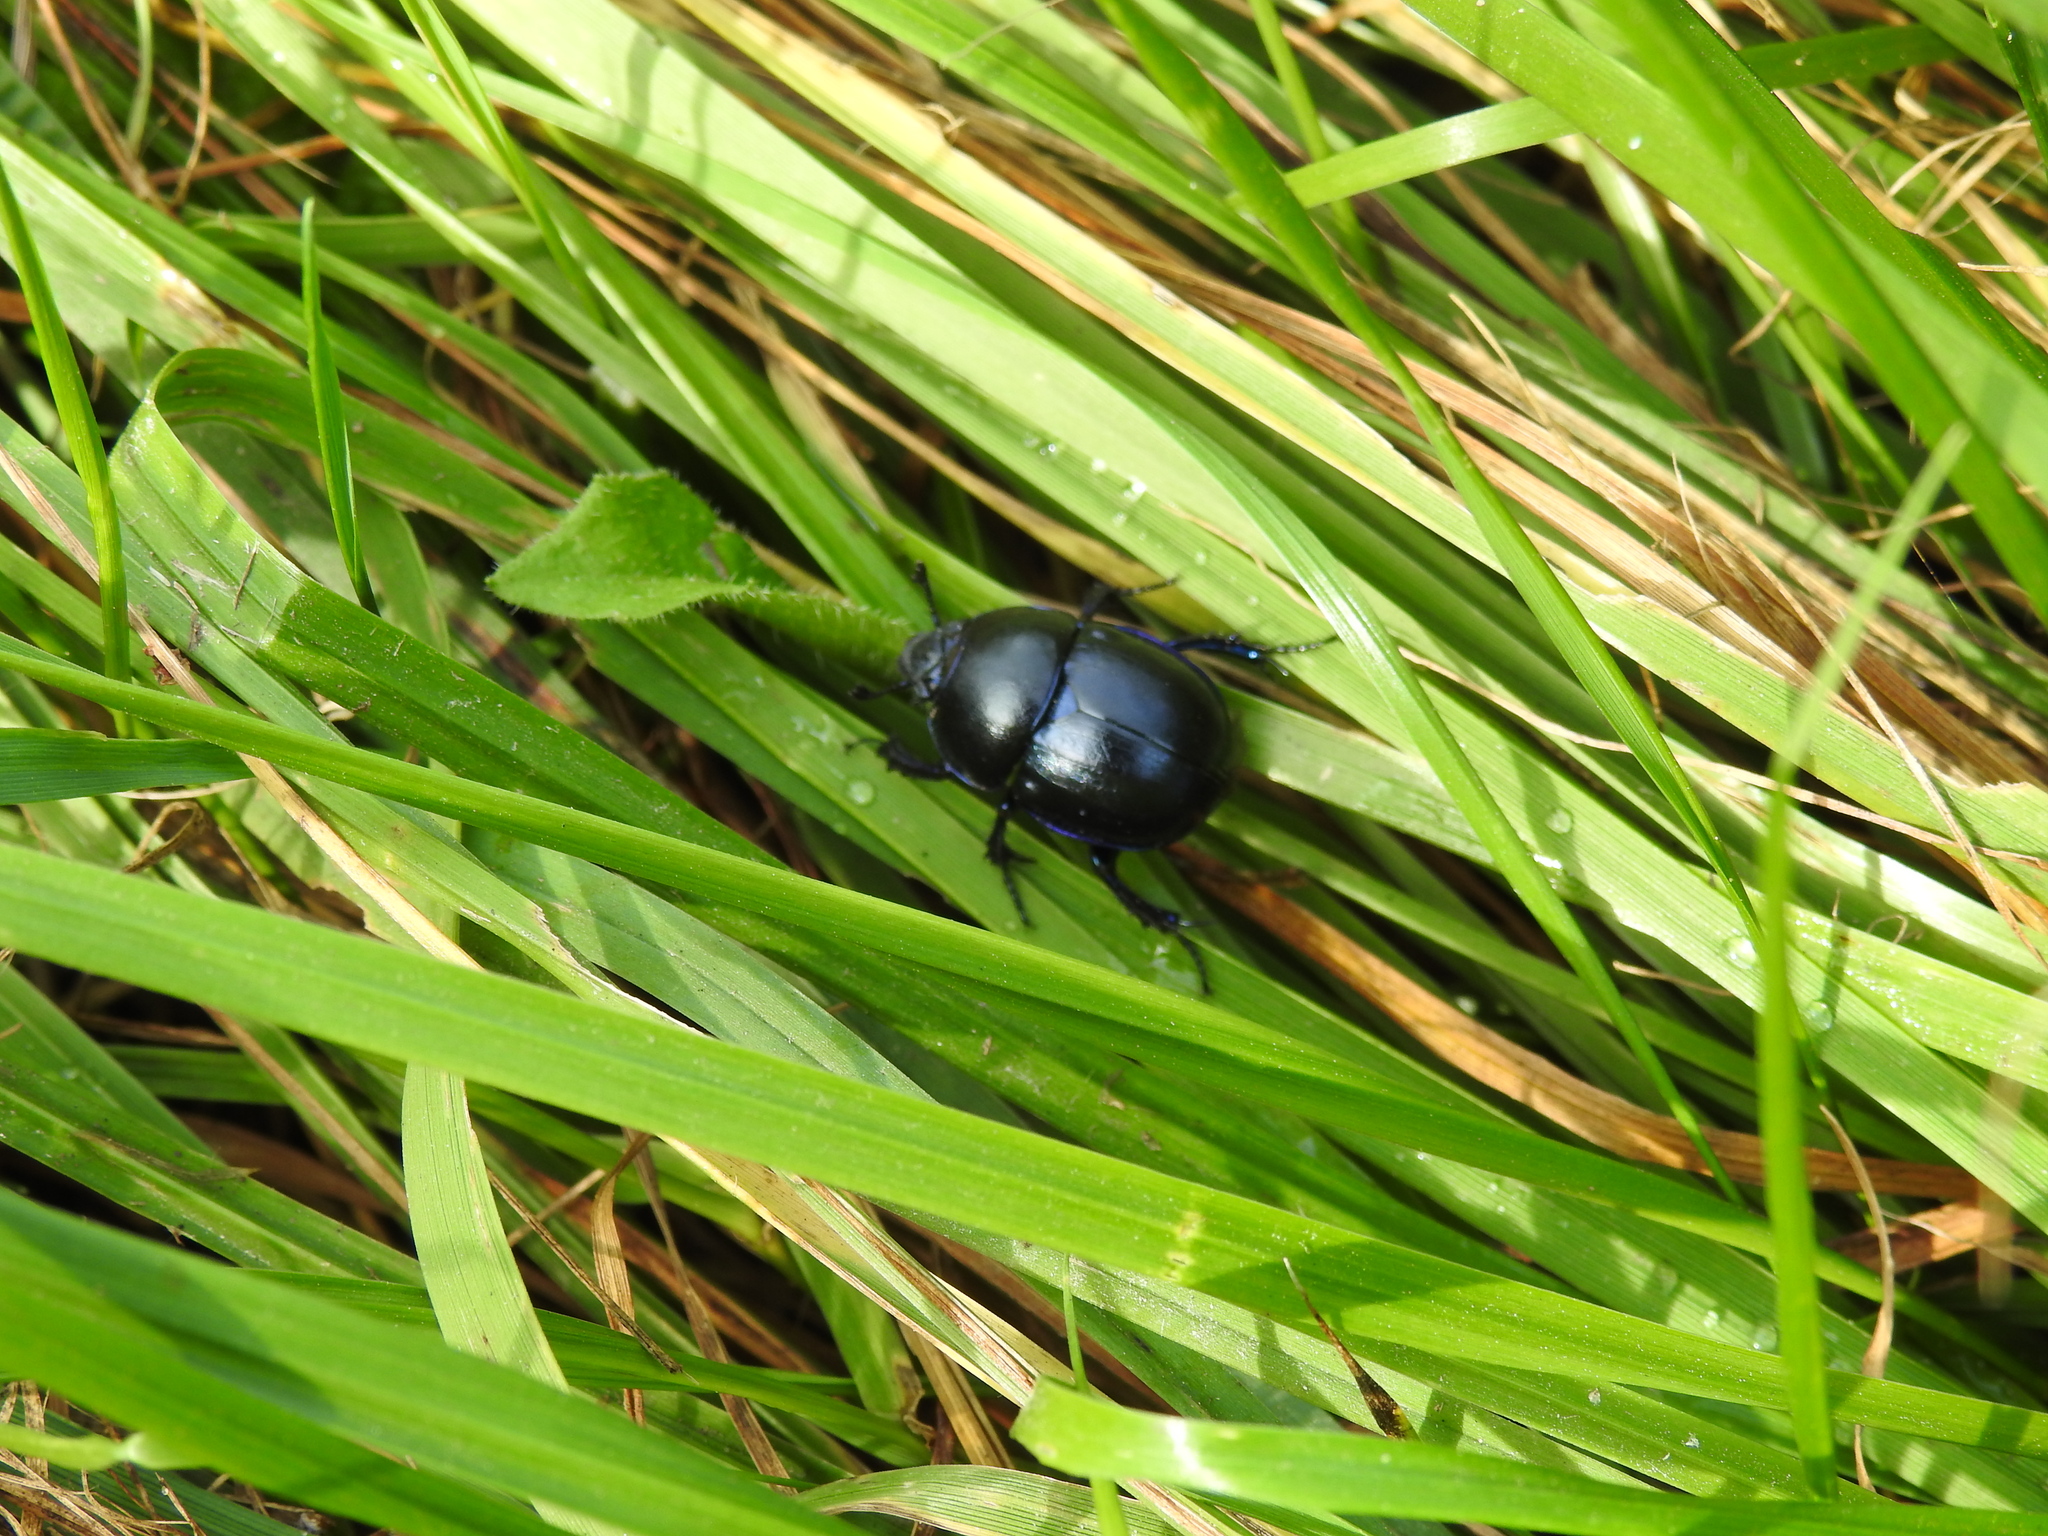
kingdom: Animalia
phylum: Arthropoda
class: Insecta
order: Coleoptera
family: Geotrupidae
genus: Trypocopris
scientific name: Trypocopris vernalis
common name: Spring dumbledor
